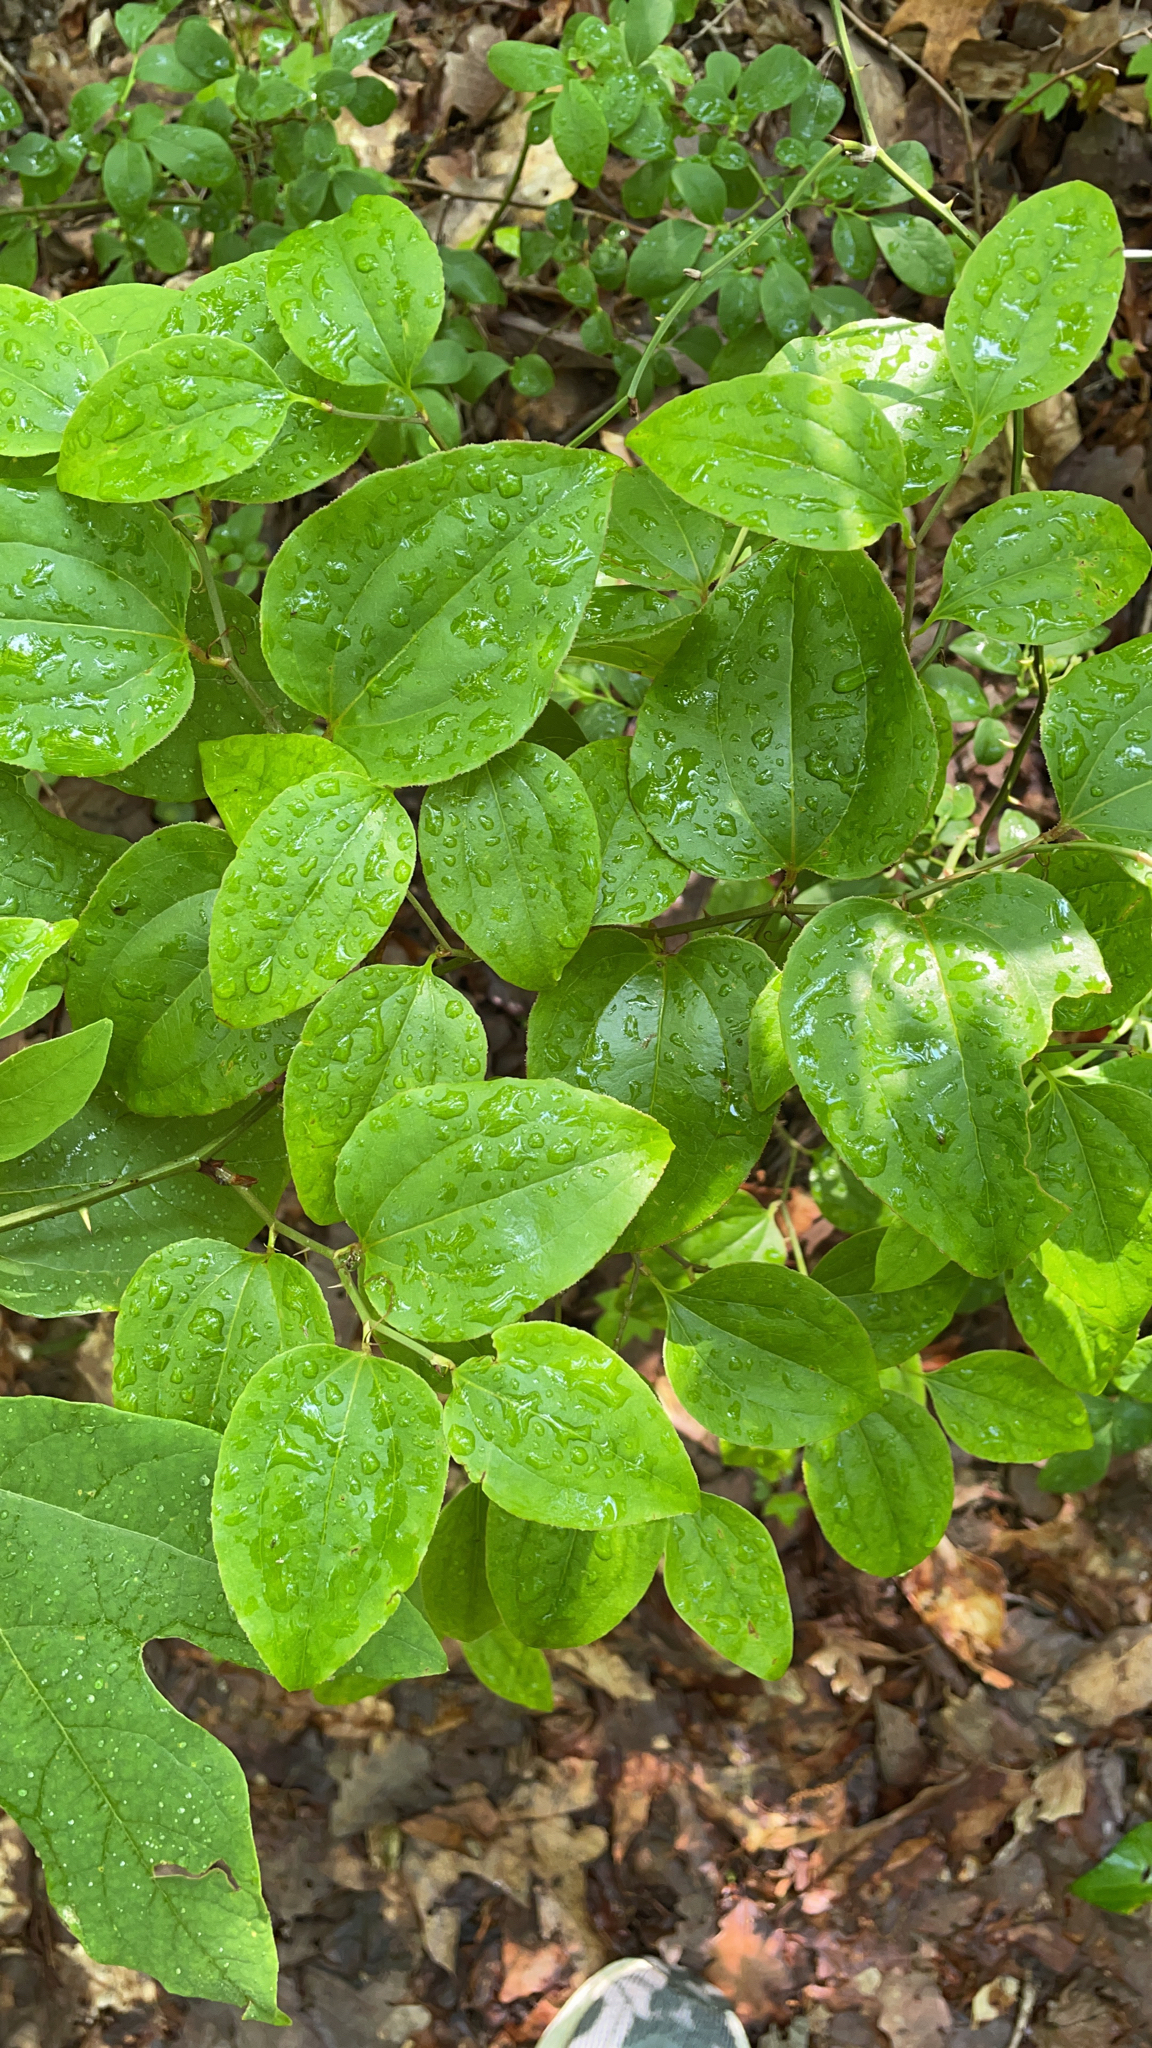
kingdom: Plantae
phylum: Tracheophyta
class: Liliopsida
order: Liliales
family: Smilacaceae
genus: Smilax
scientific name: Smilax rotundifolia
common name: Bullbriar
